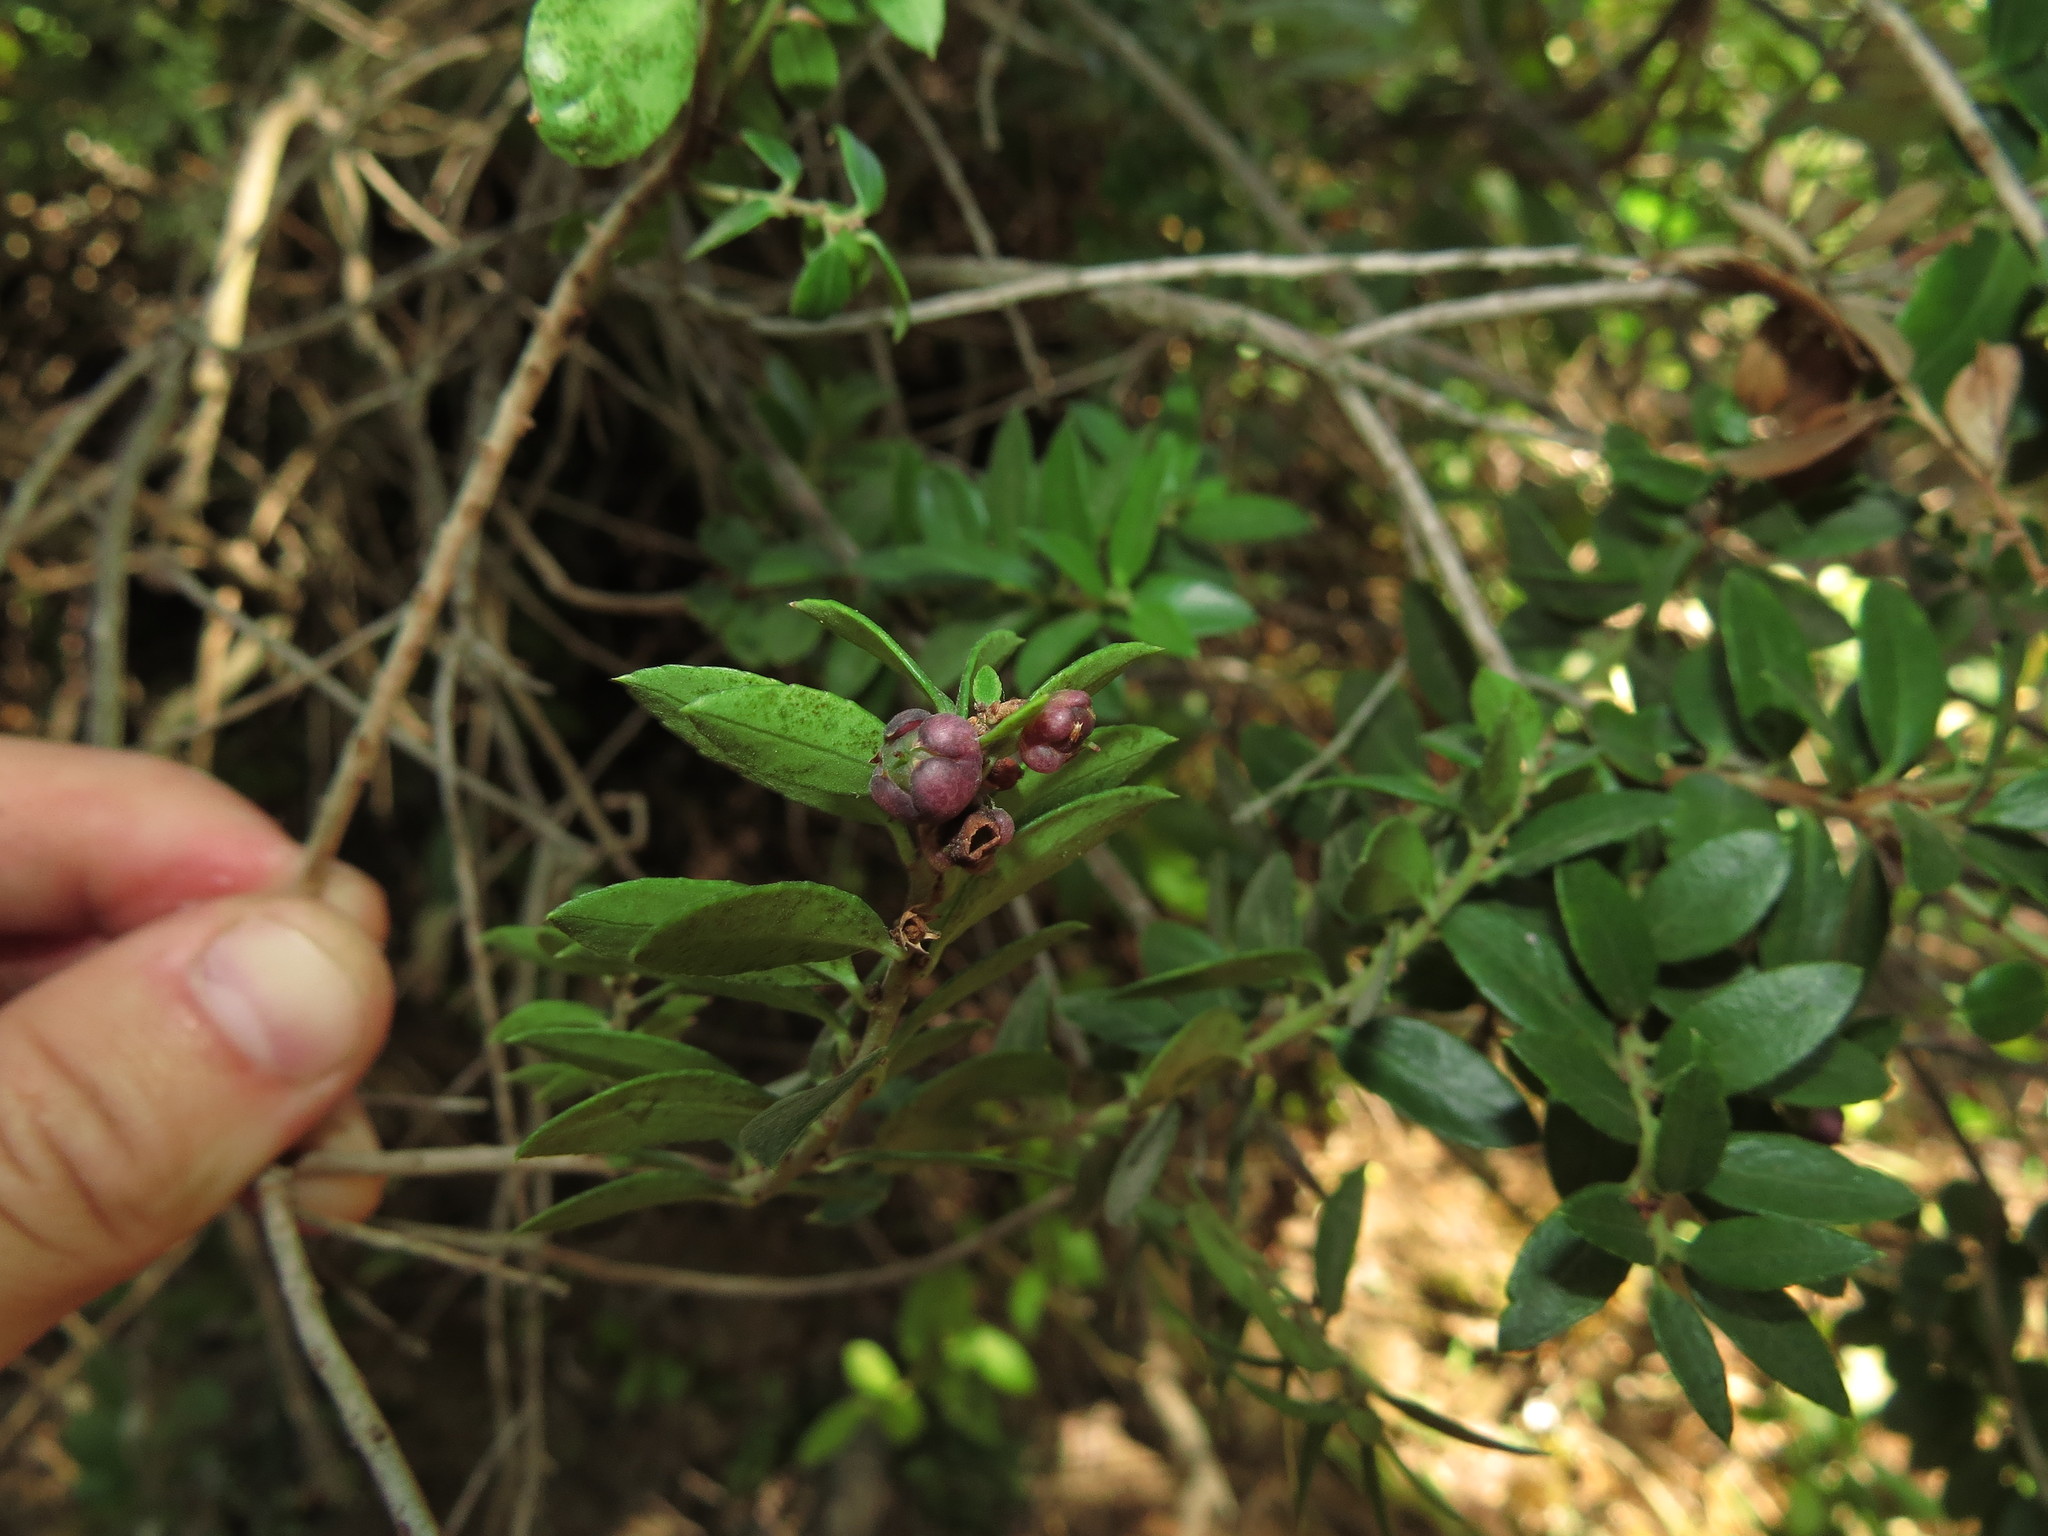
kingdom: Plantae
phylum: Tracheophyta
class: Magnoliopsida
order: Ericales
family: Ericaceae
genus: Gaultheria
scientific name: Gaultheria phillyreifolia
